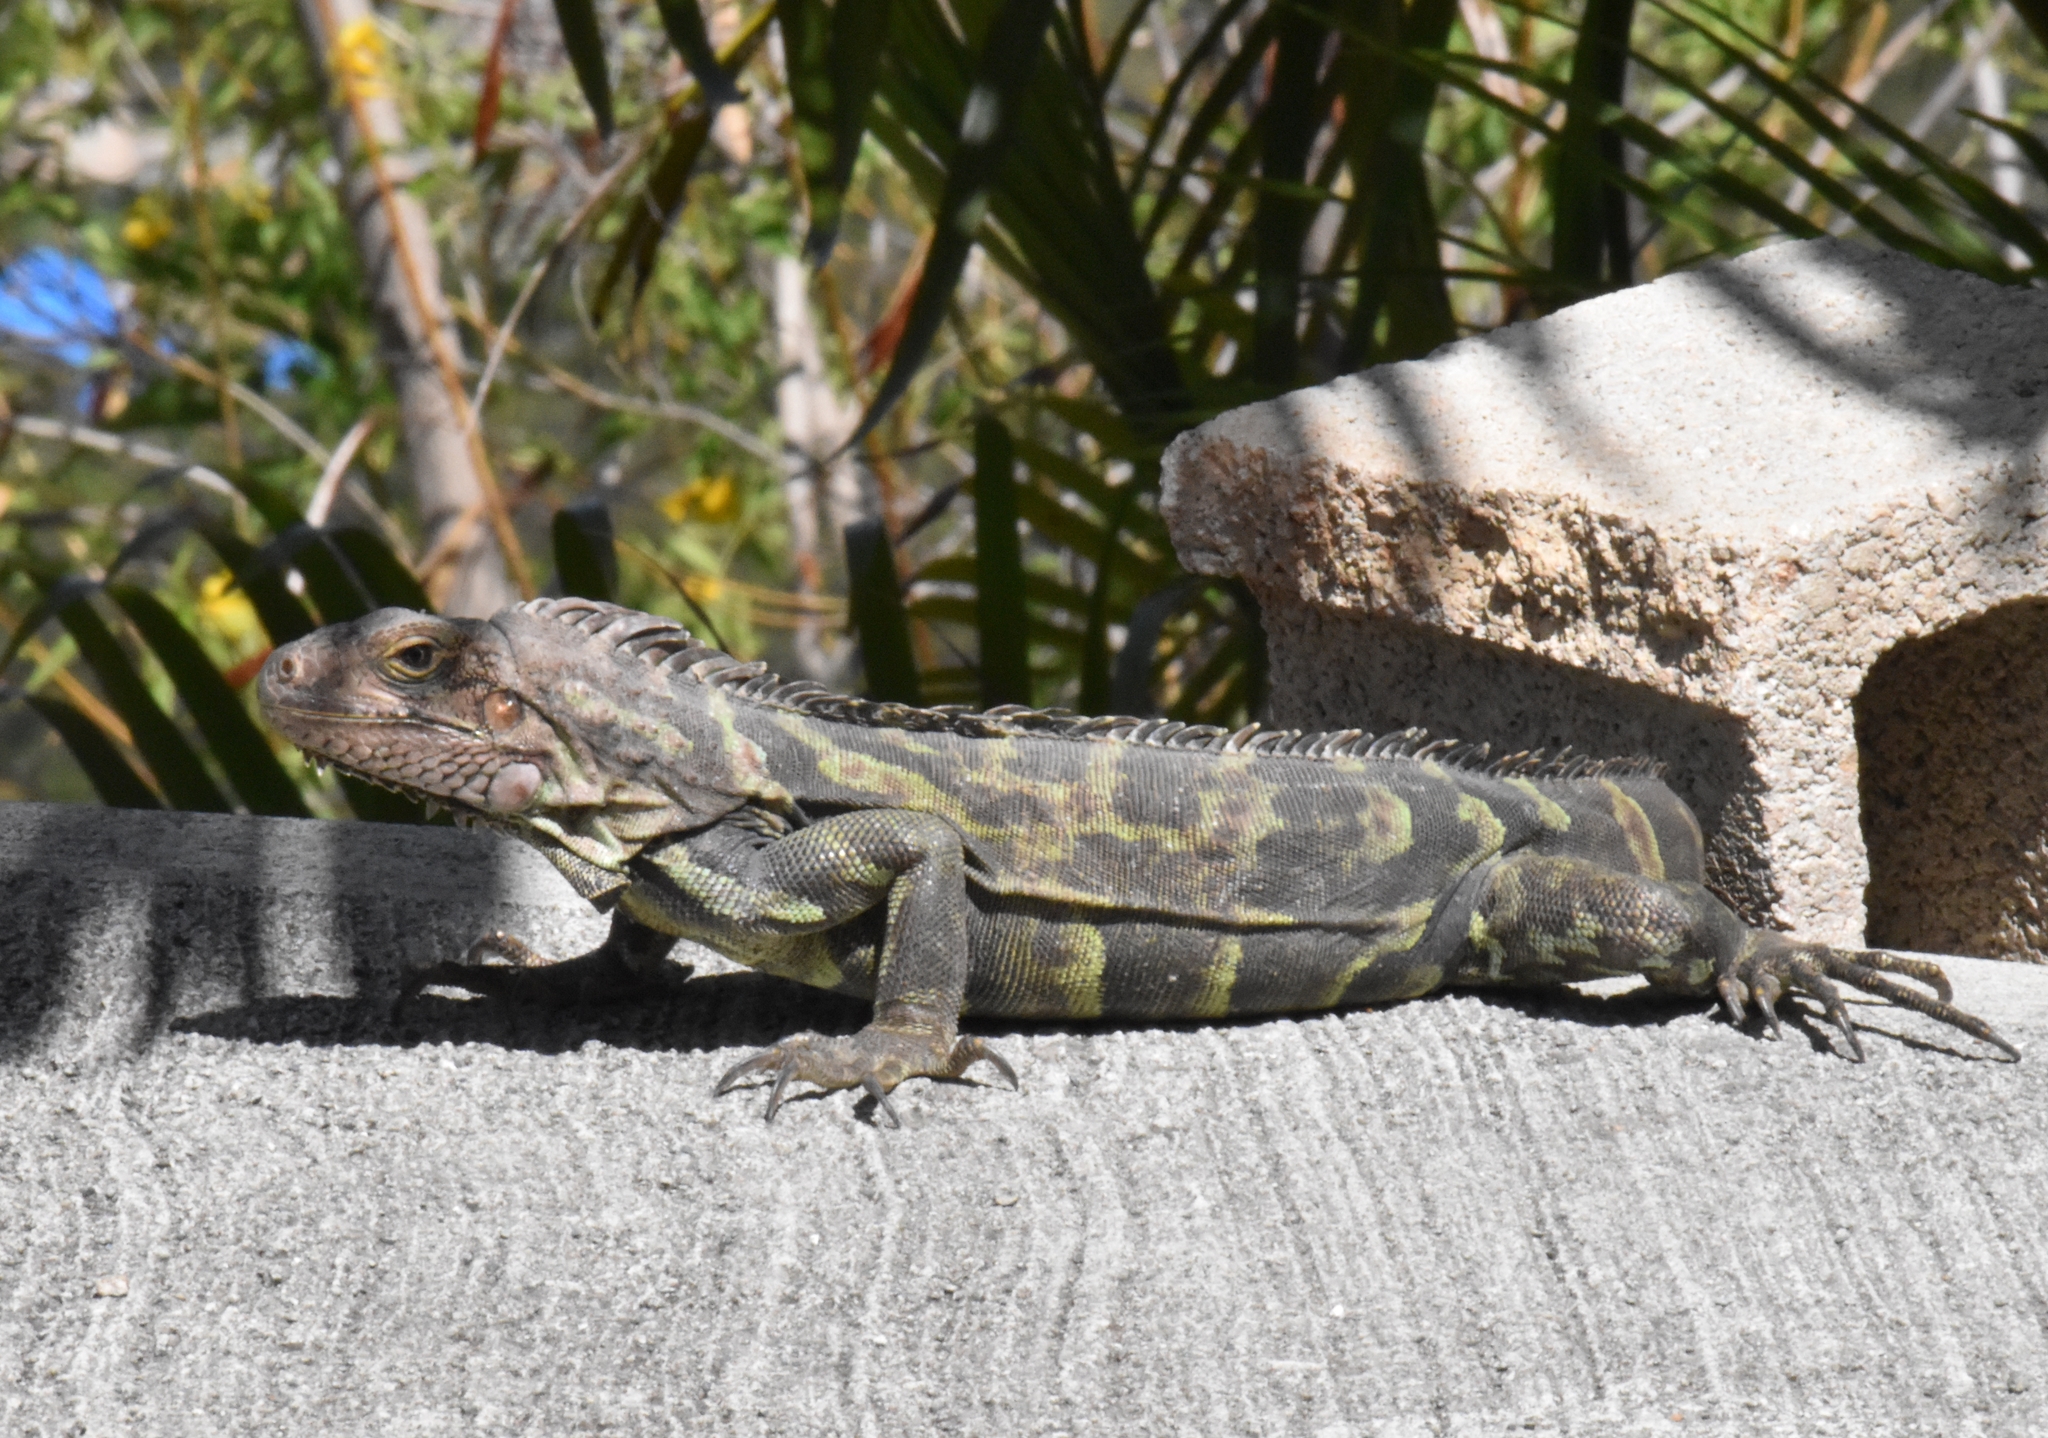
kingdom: Animalia
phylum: Chordata
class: Squamata
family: Iguanidae
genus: Iguana
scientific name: Iguana iguana
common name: Green iguana
